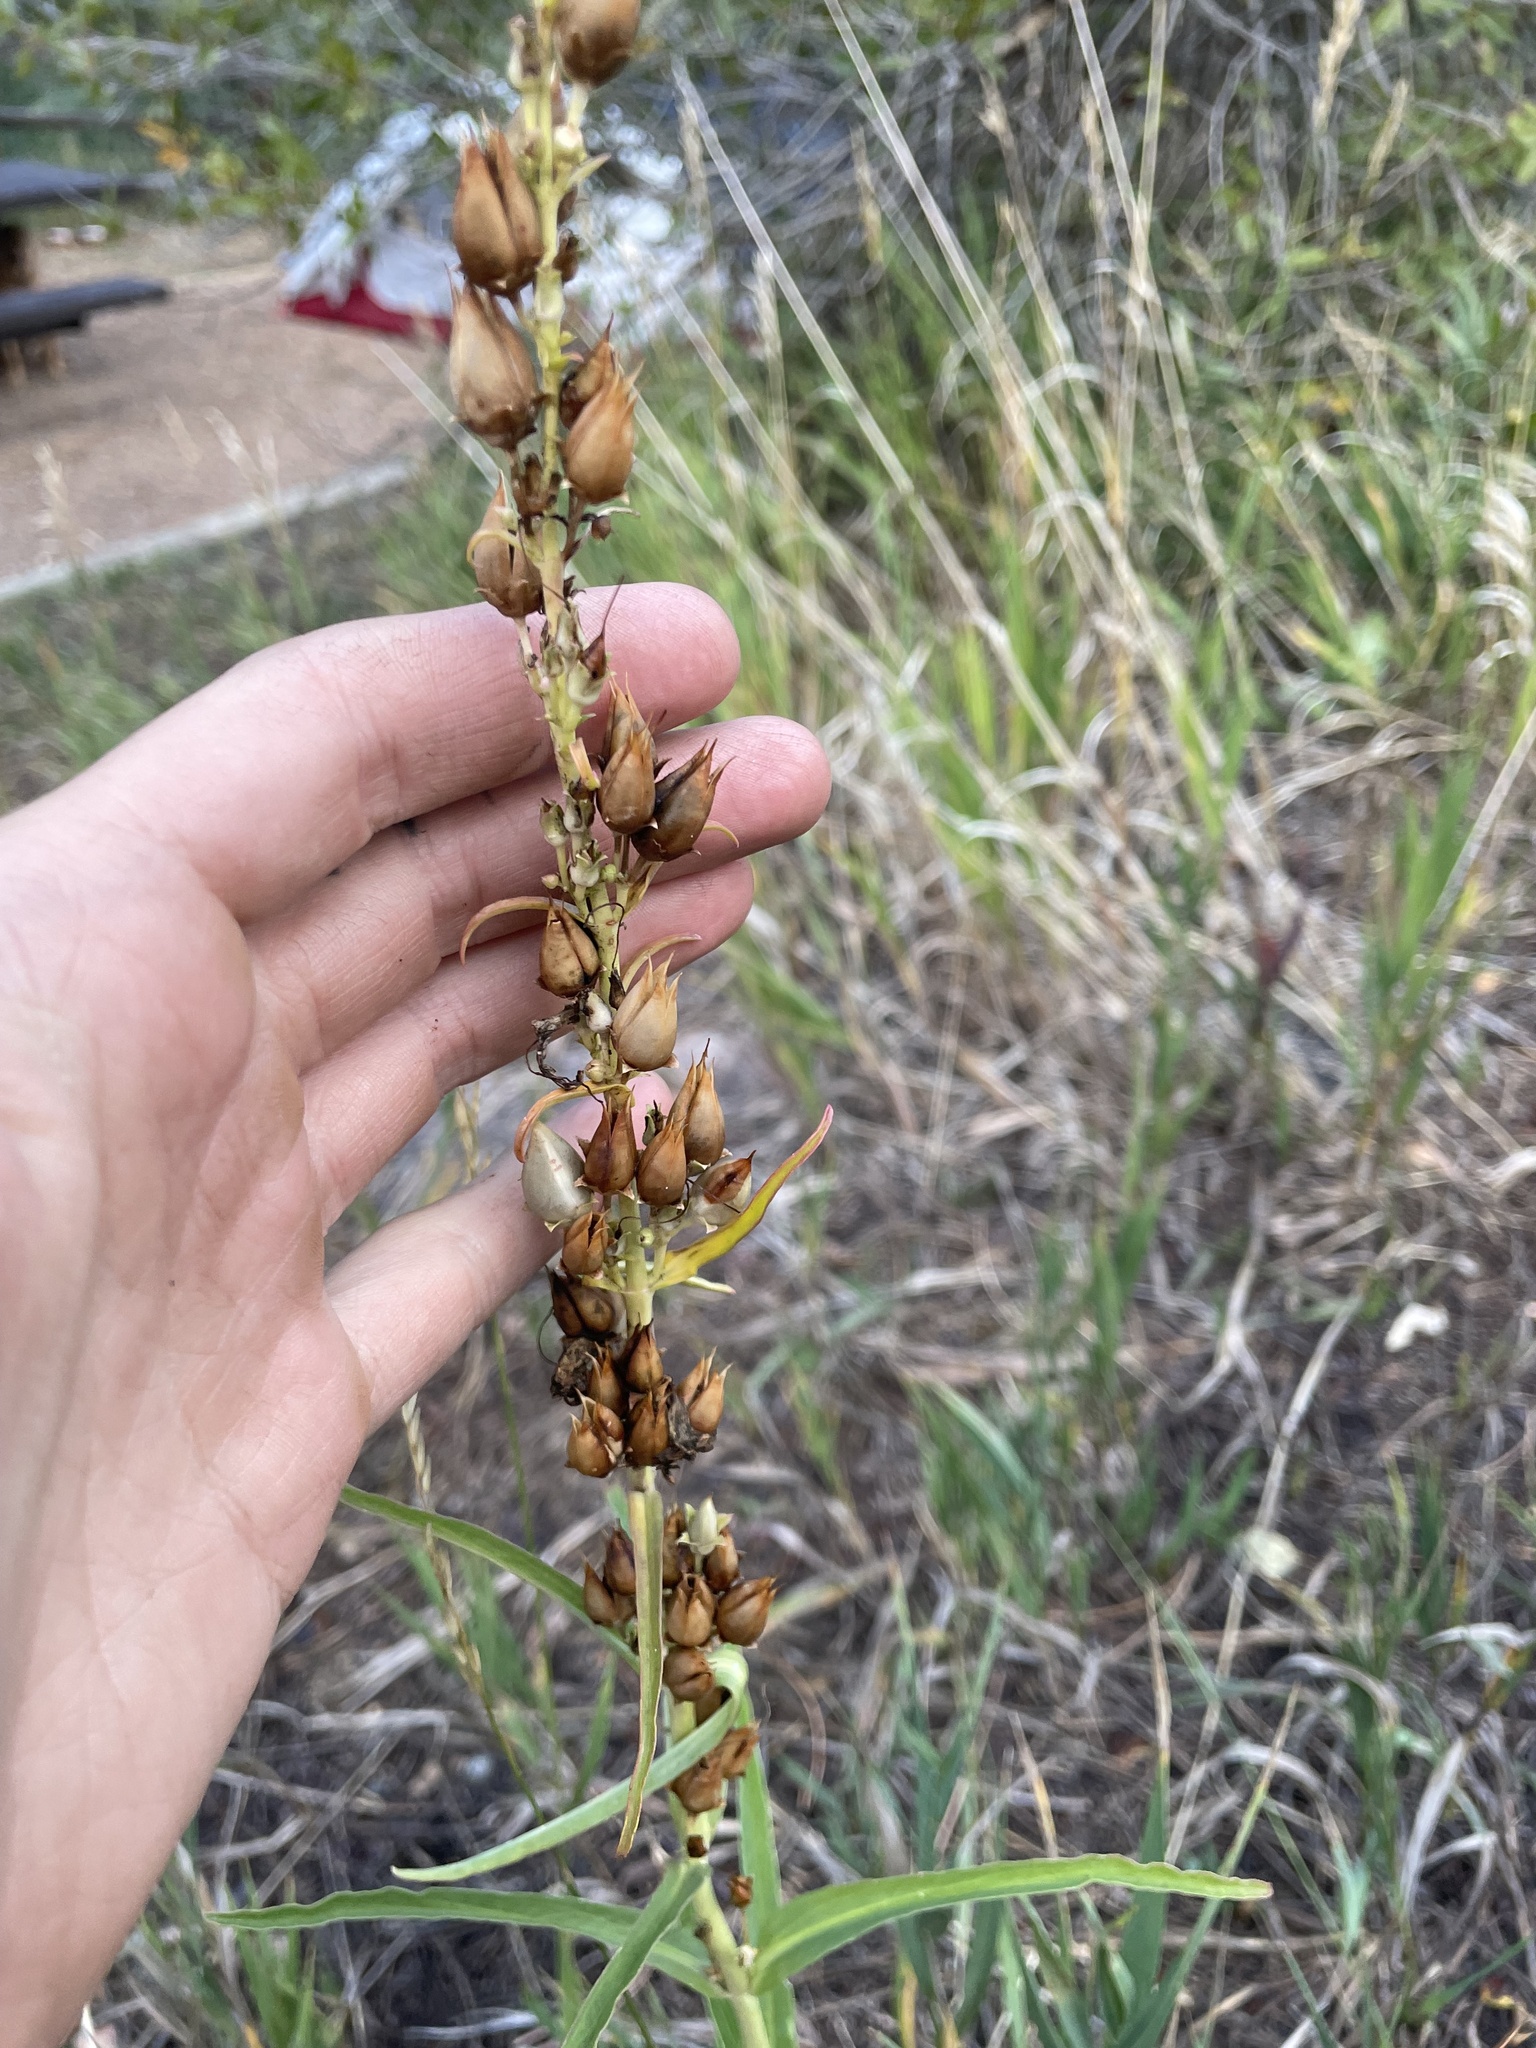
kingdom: Plantae
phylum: Tracheophyta
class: Magnoliopsida
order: Lamiales
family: Plantaginaceae
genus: Penstemon
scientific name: Penstemon virgatus
